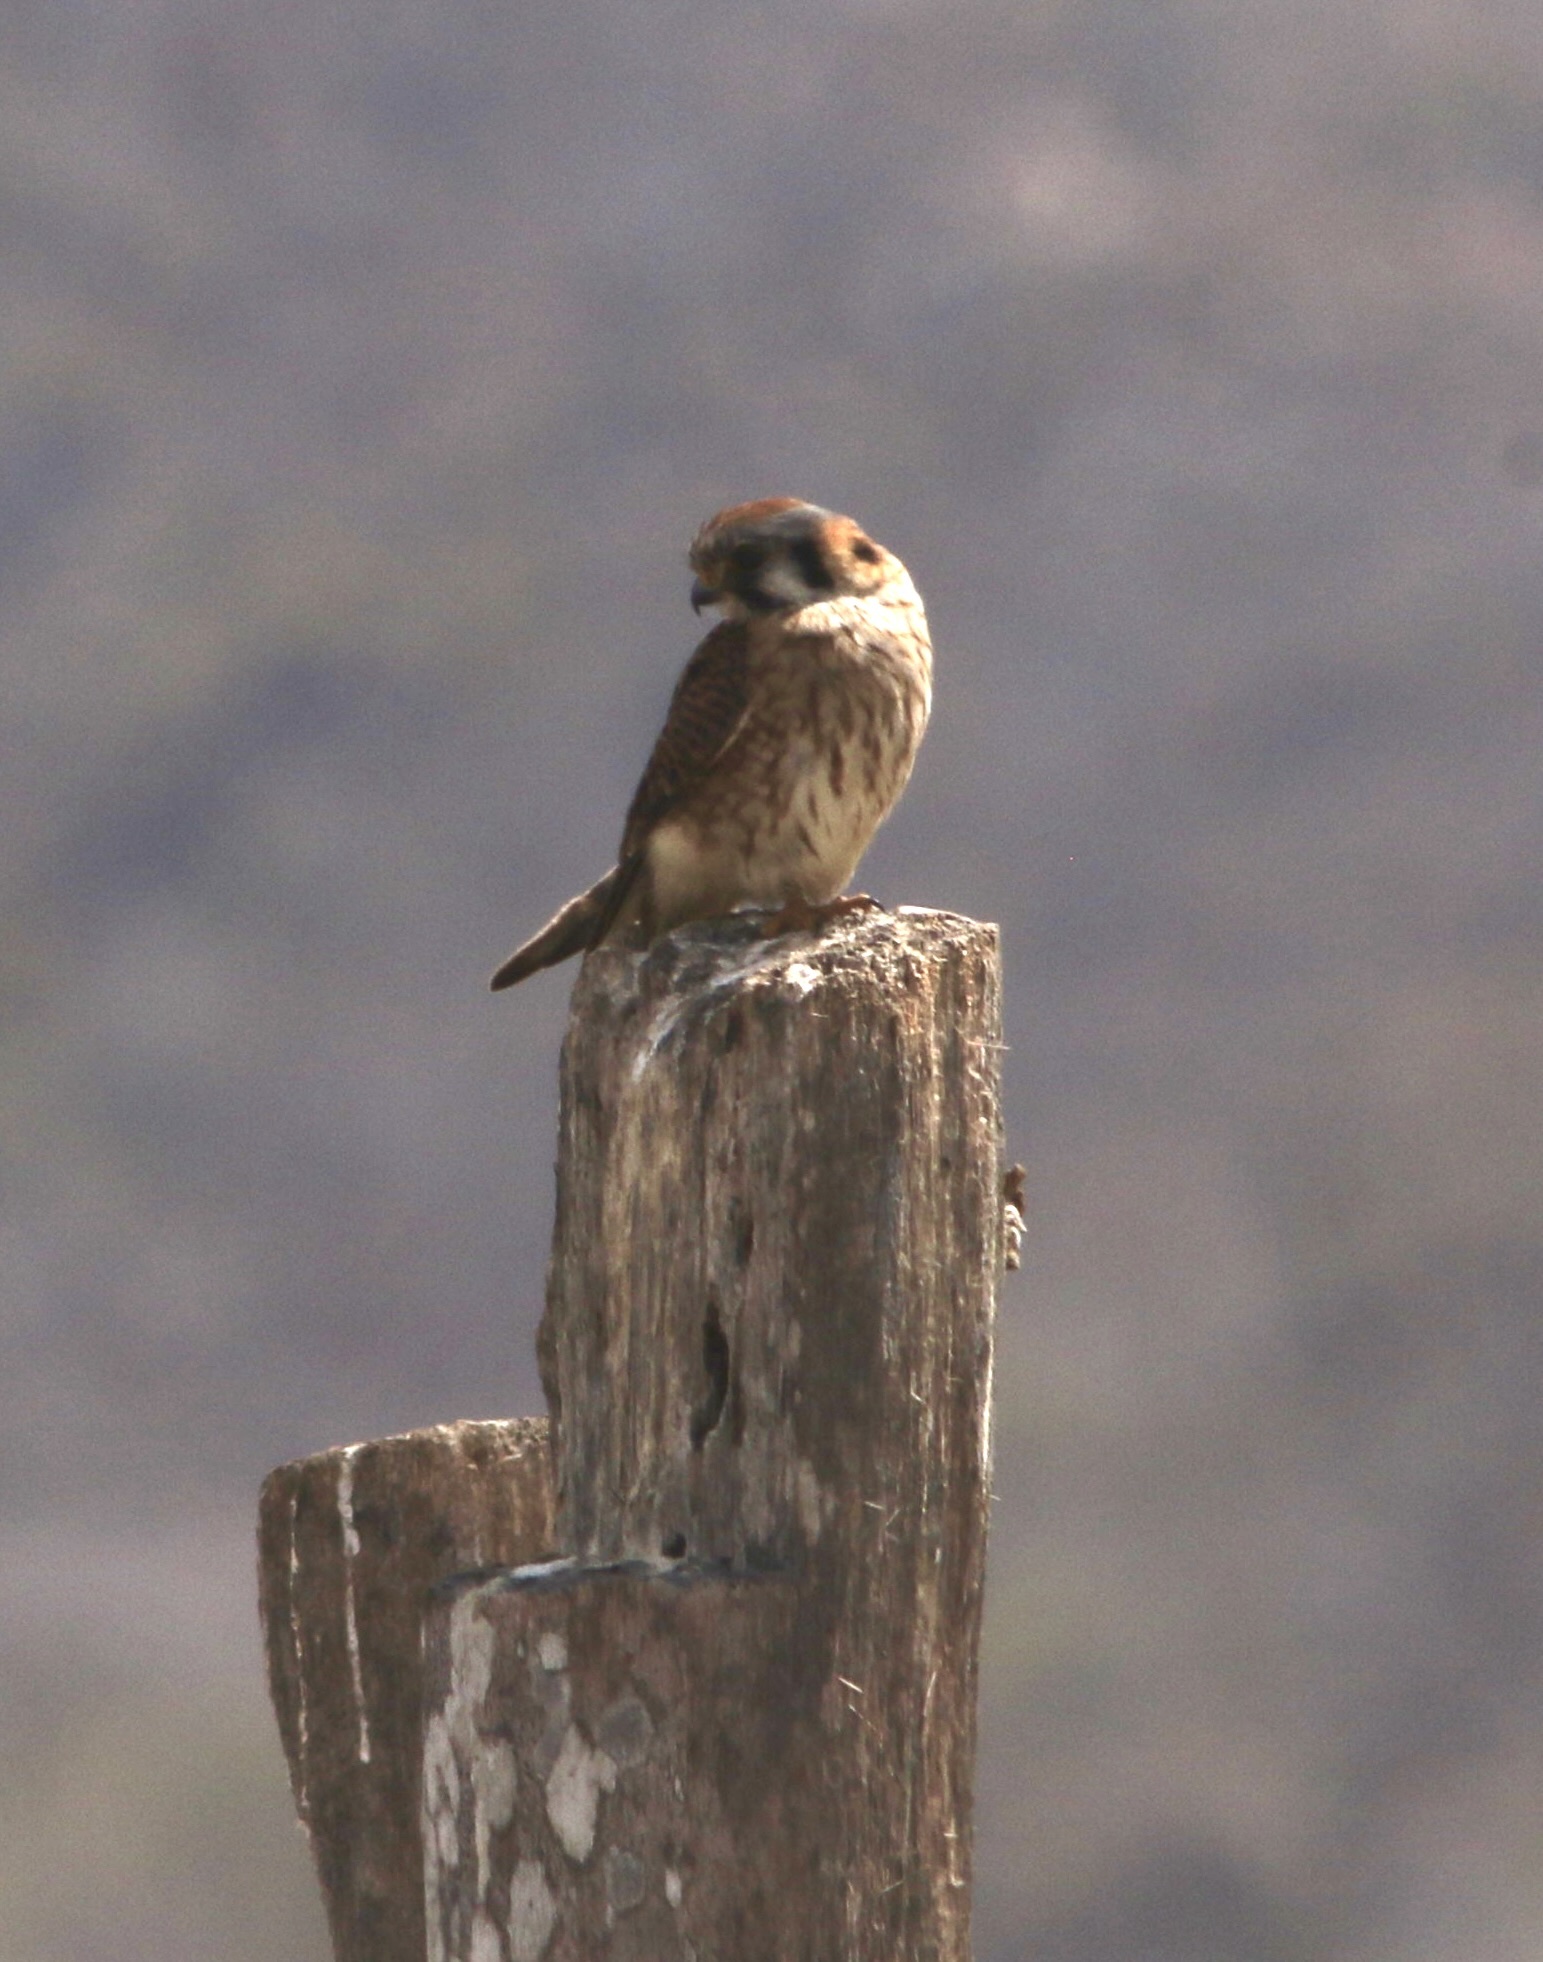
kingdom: Animalia
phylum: Chordata
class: Aves
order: Falconiformes
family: Falconidae
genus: Falco
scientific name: Falco sparverius
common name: American kestrel
